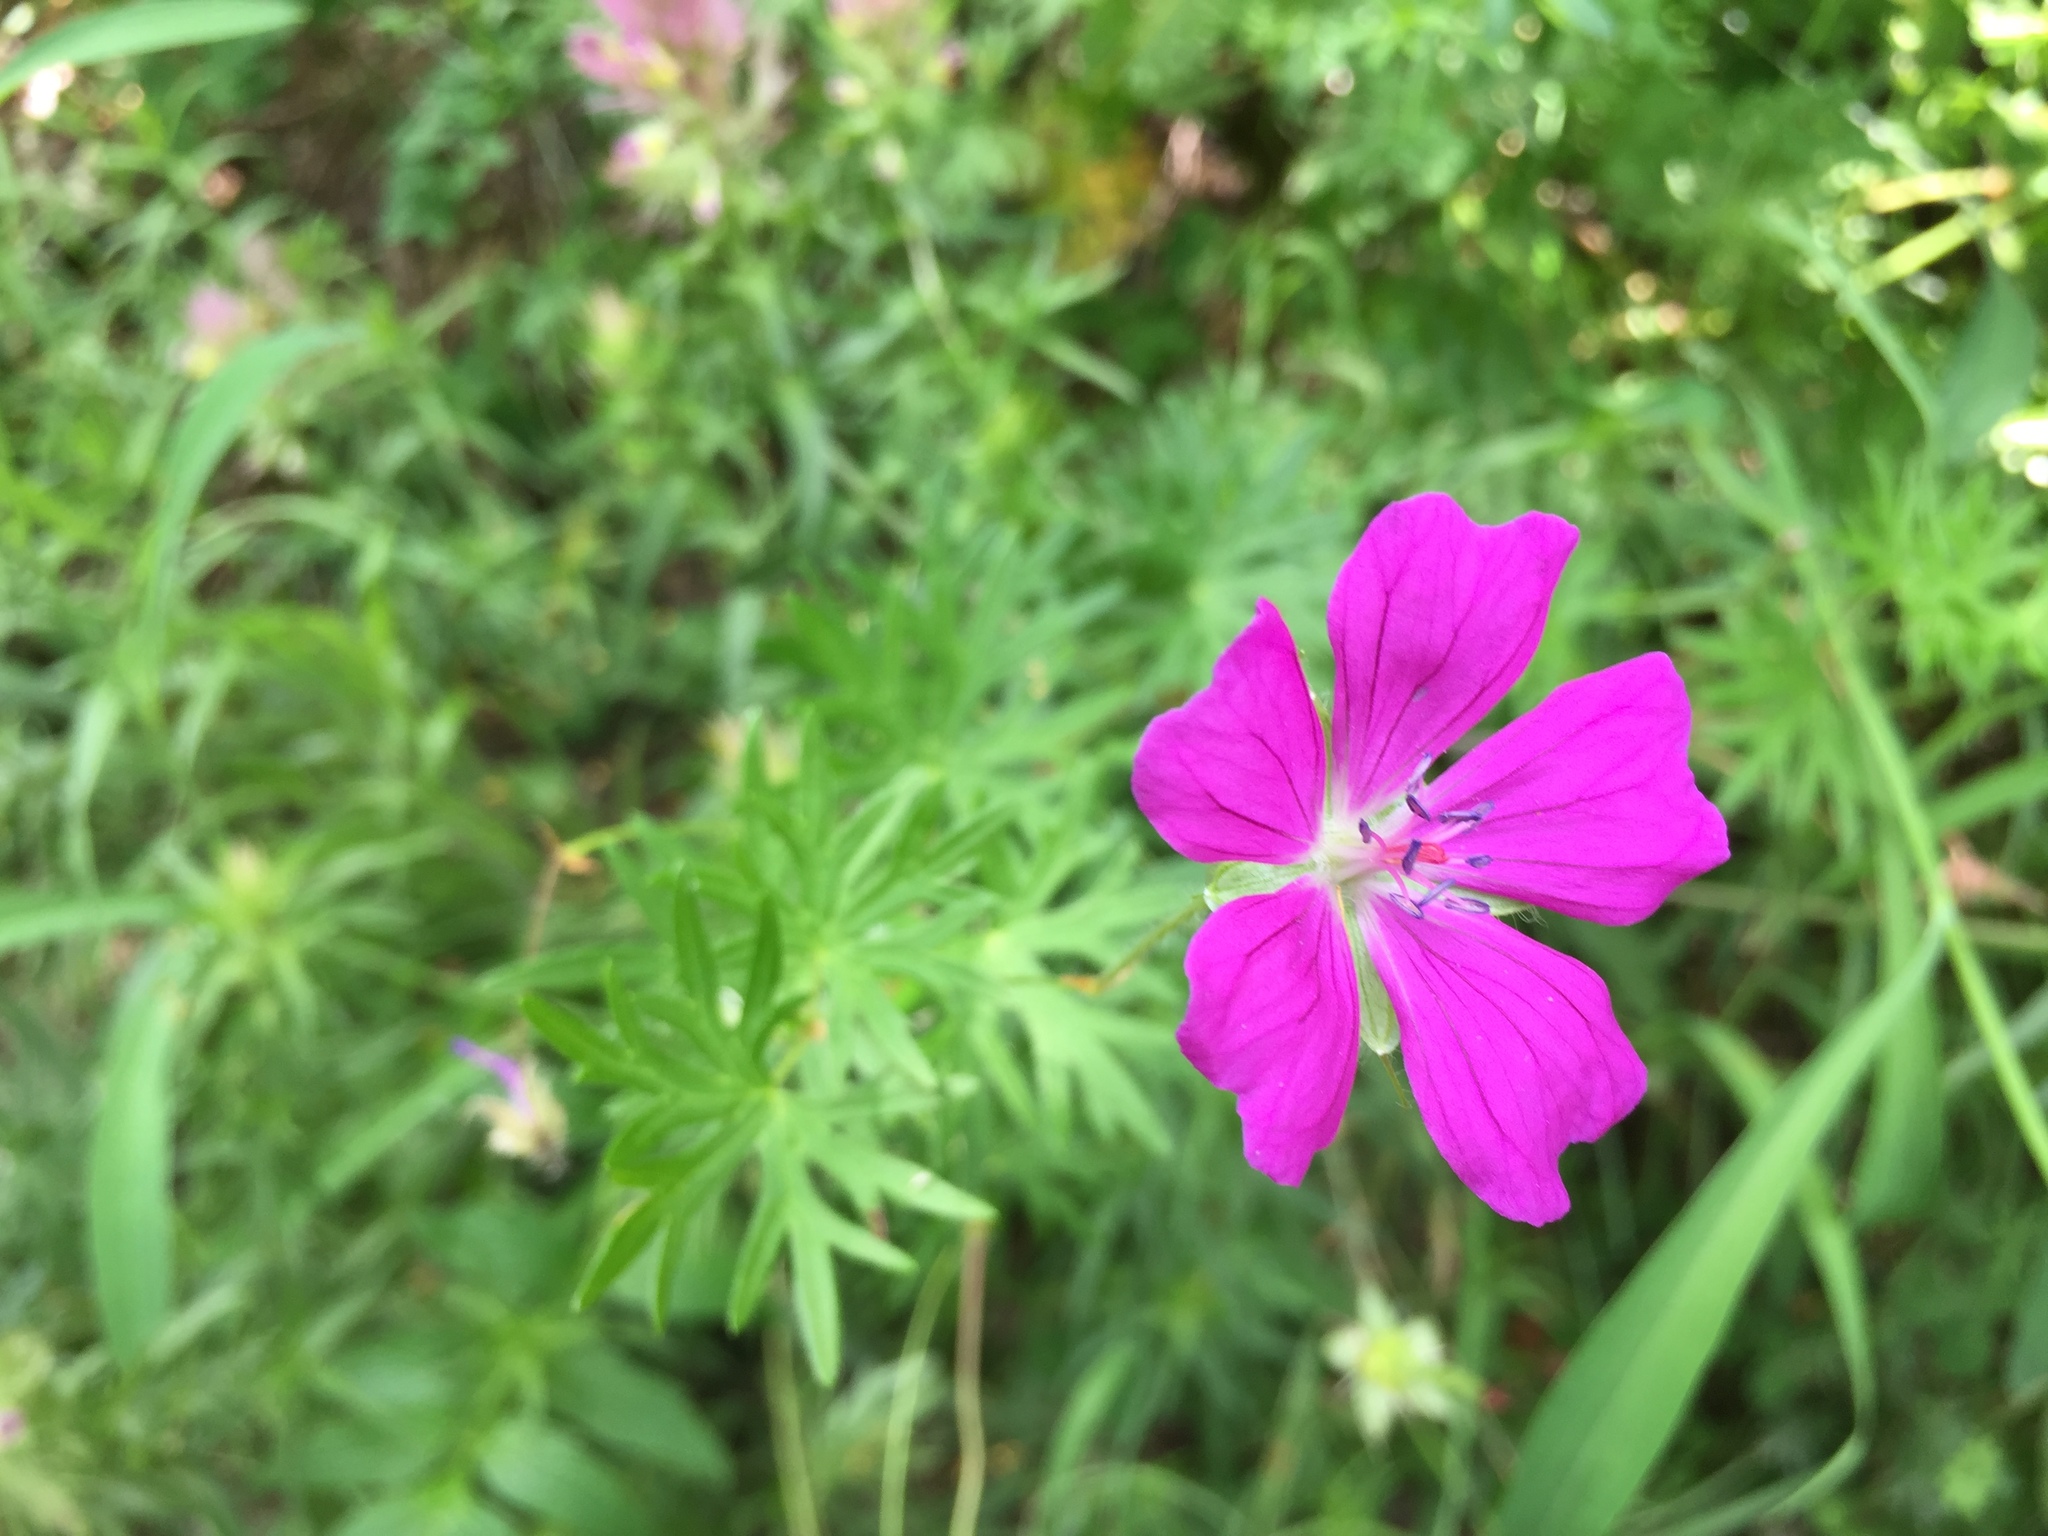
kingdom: Plantae
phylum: Tracheophyta
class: Magnoliopsida
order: Geraniales
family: Geraniaceae
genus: Geranium
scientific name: Geranium sanguineum
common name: Bloody crane's-bill
